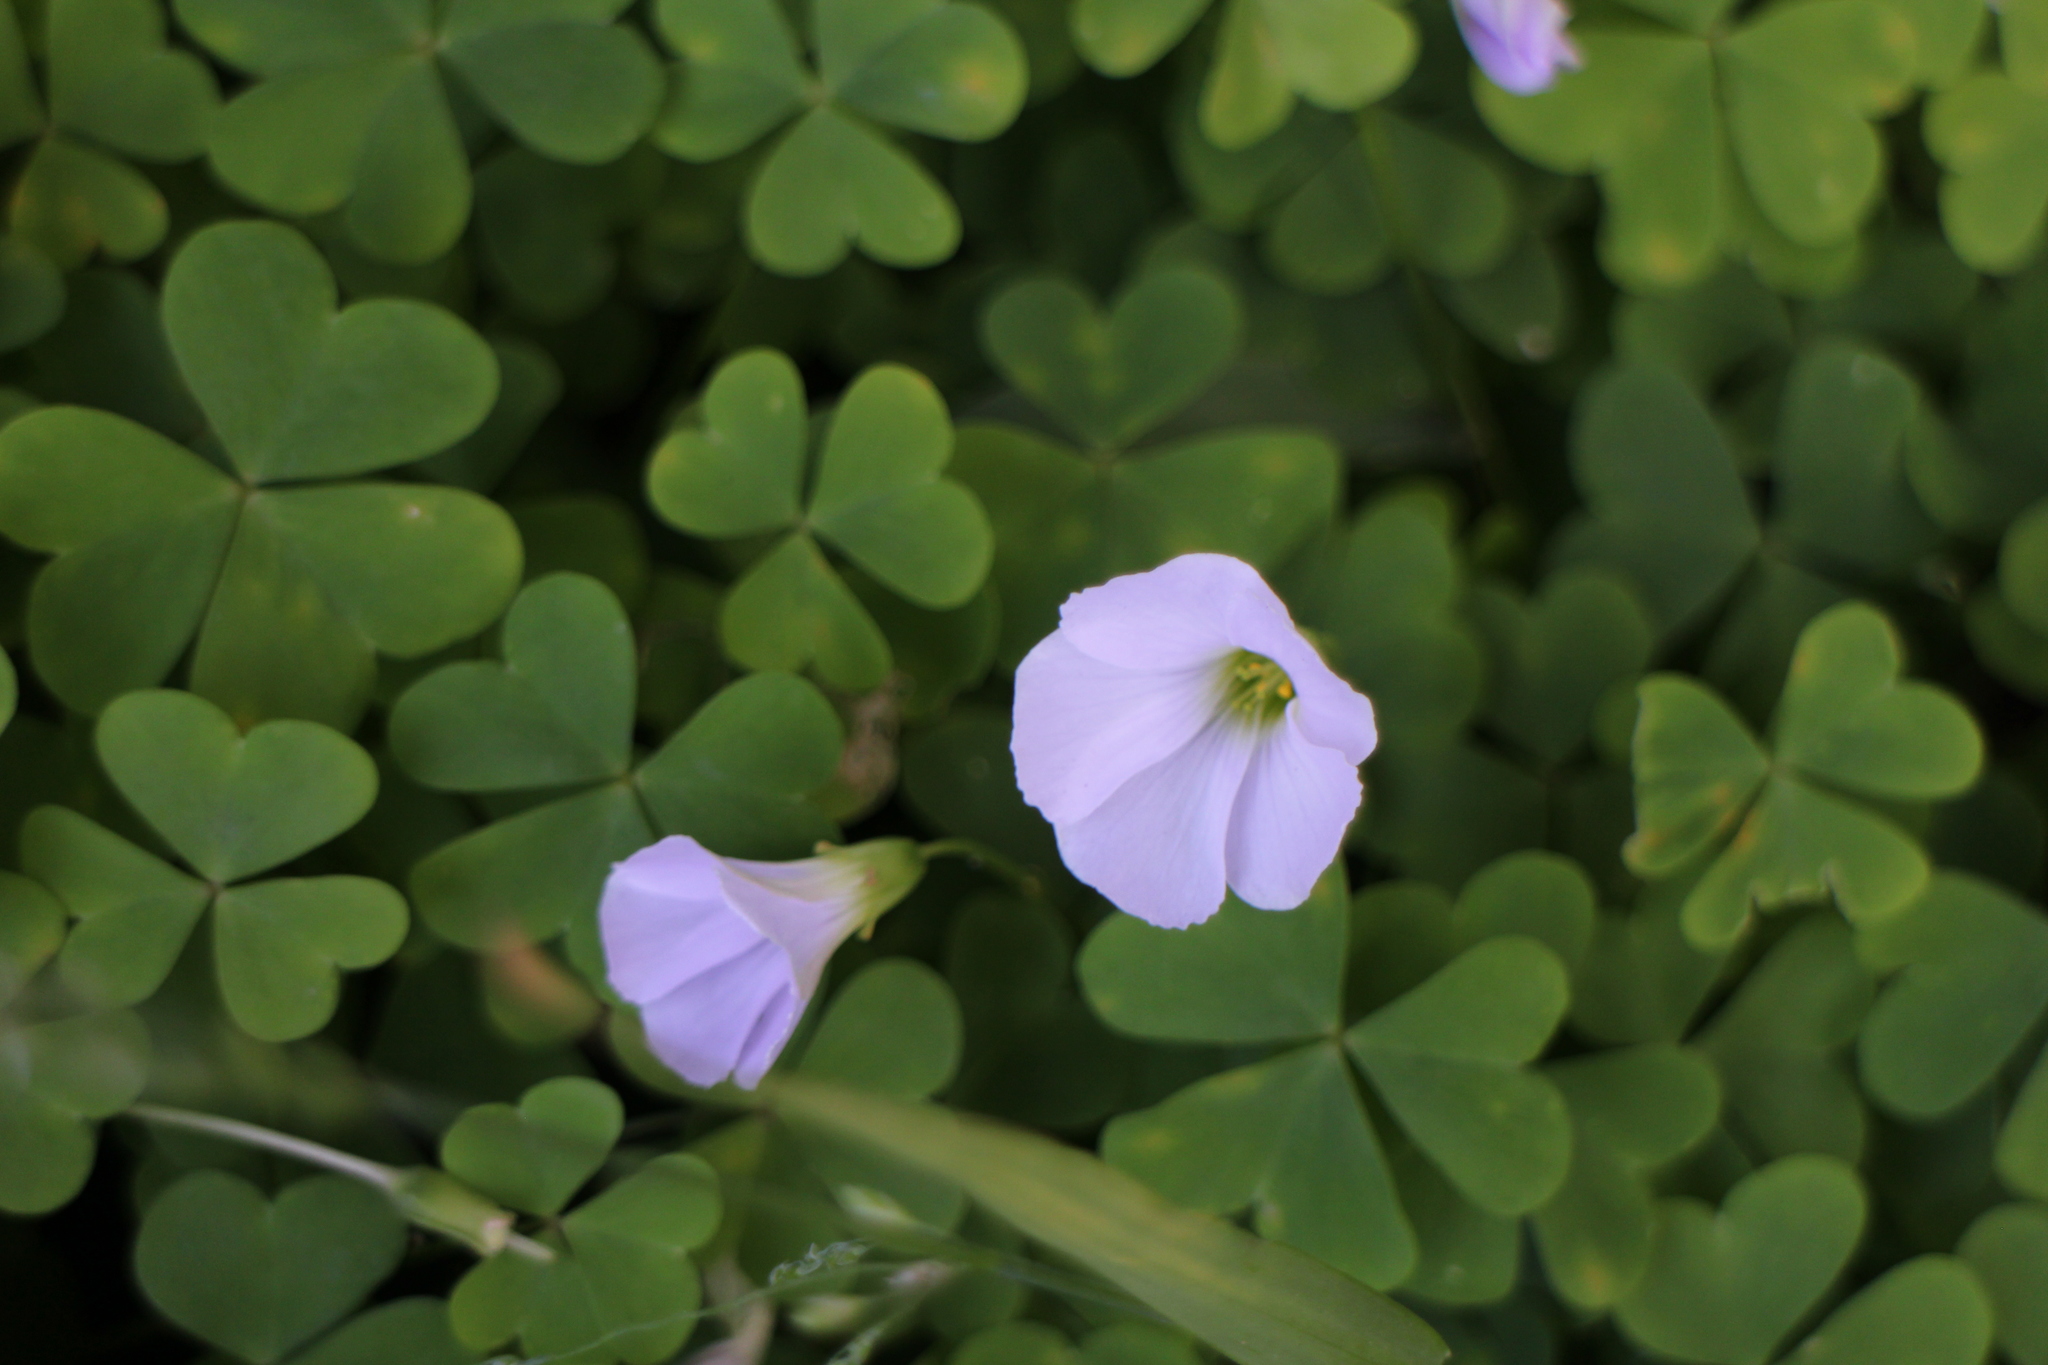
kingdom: Plantae
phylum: Tracheophyta
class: Magnoliopsida
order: Oxalidales
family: Oxalidaceae
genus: Oxalis
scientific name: Oxalis incarnata
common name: Pale pink-sorrel
